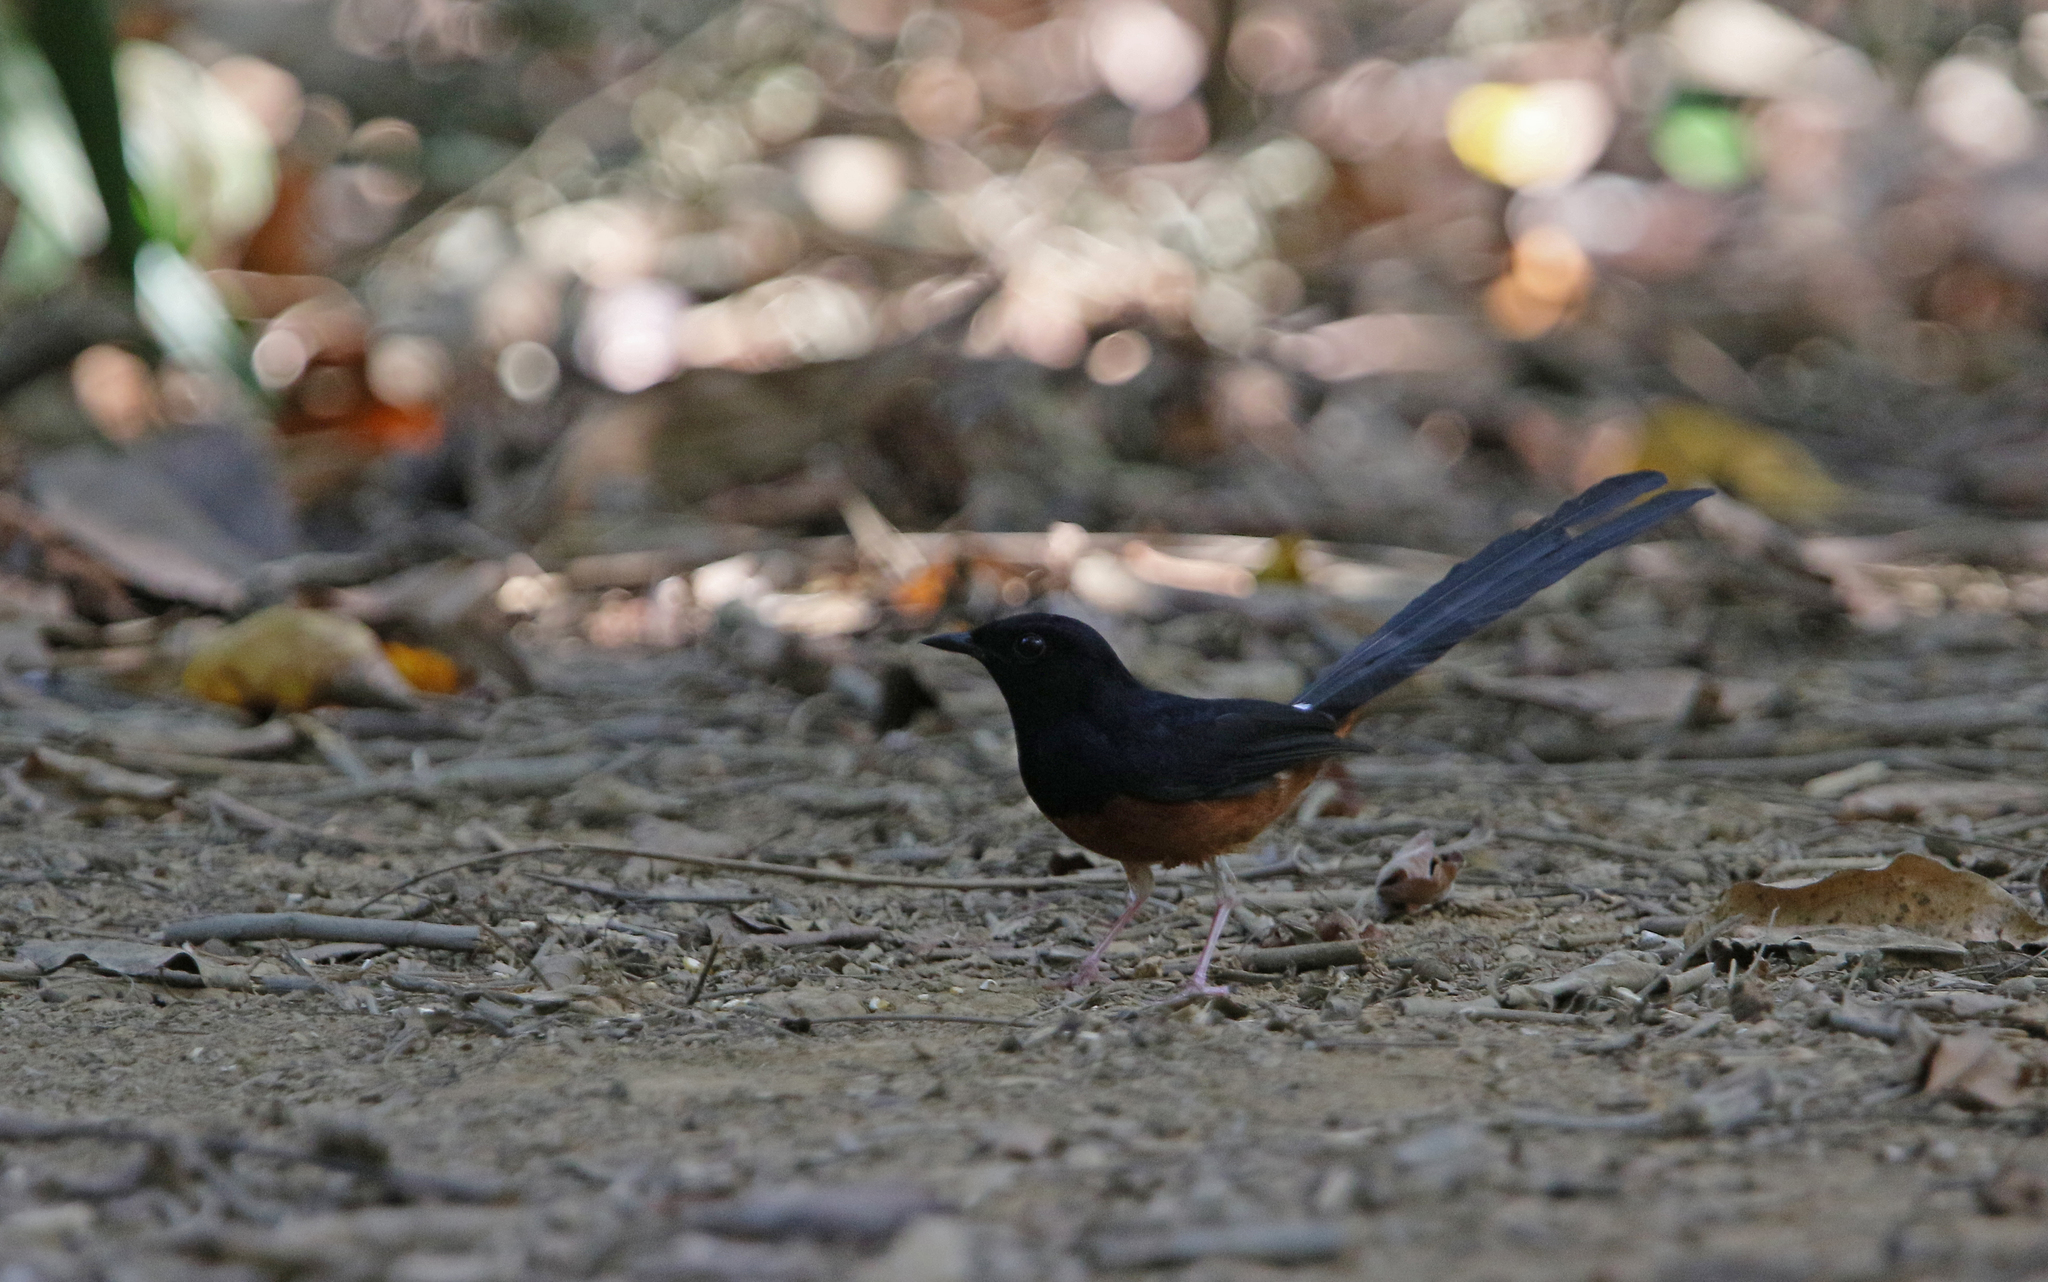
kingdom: Animalia
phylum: Chordata
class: Aves
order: Passeriformes
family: Muscicapidae
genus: Copsychus
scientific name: Copsychus malabaricus
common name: White-rumped shama
